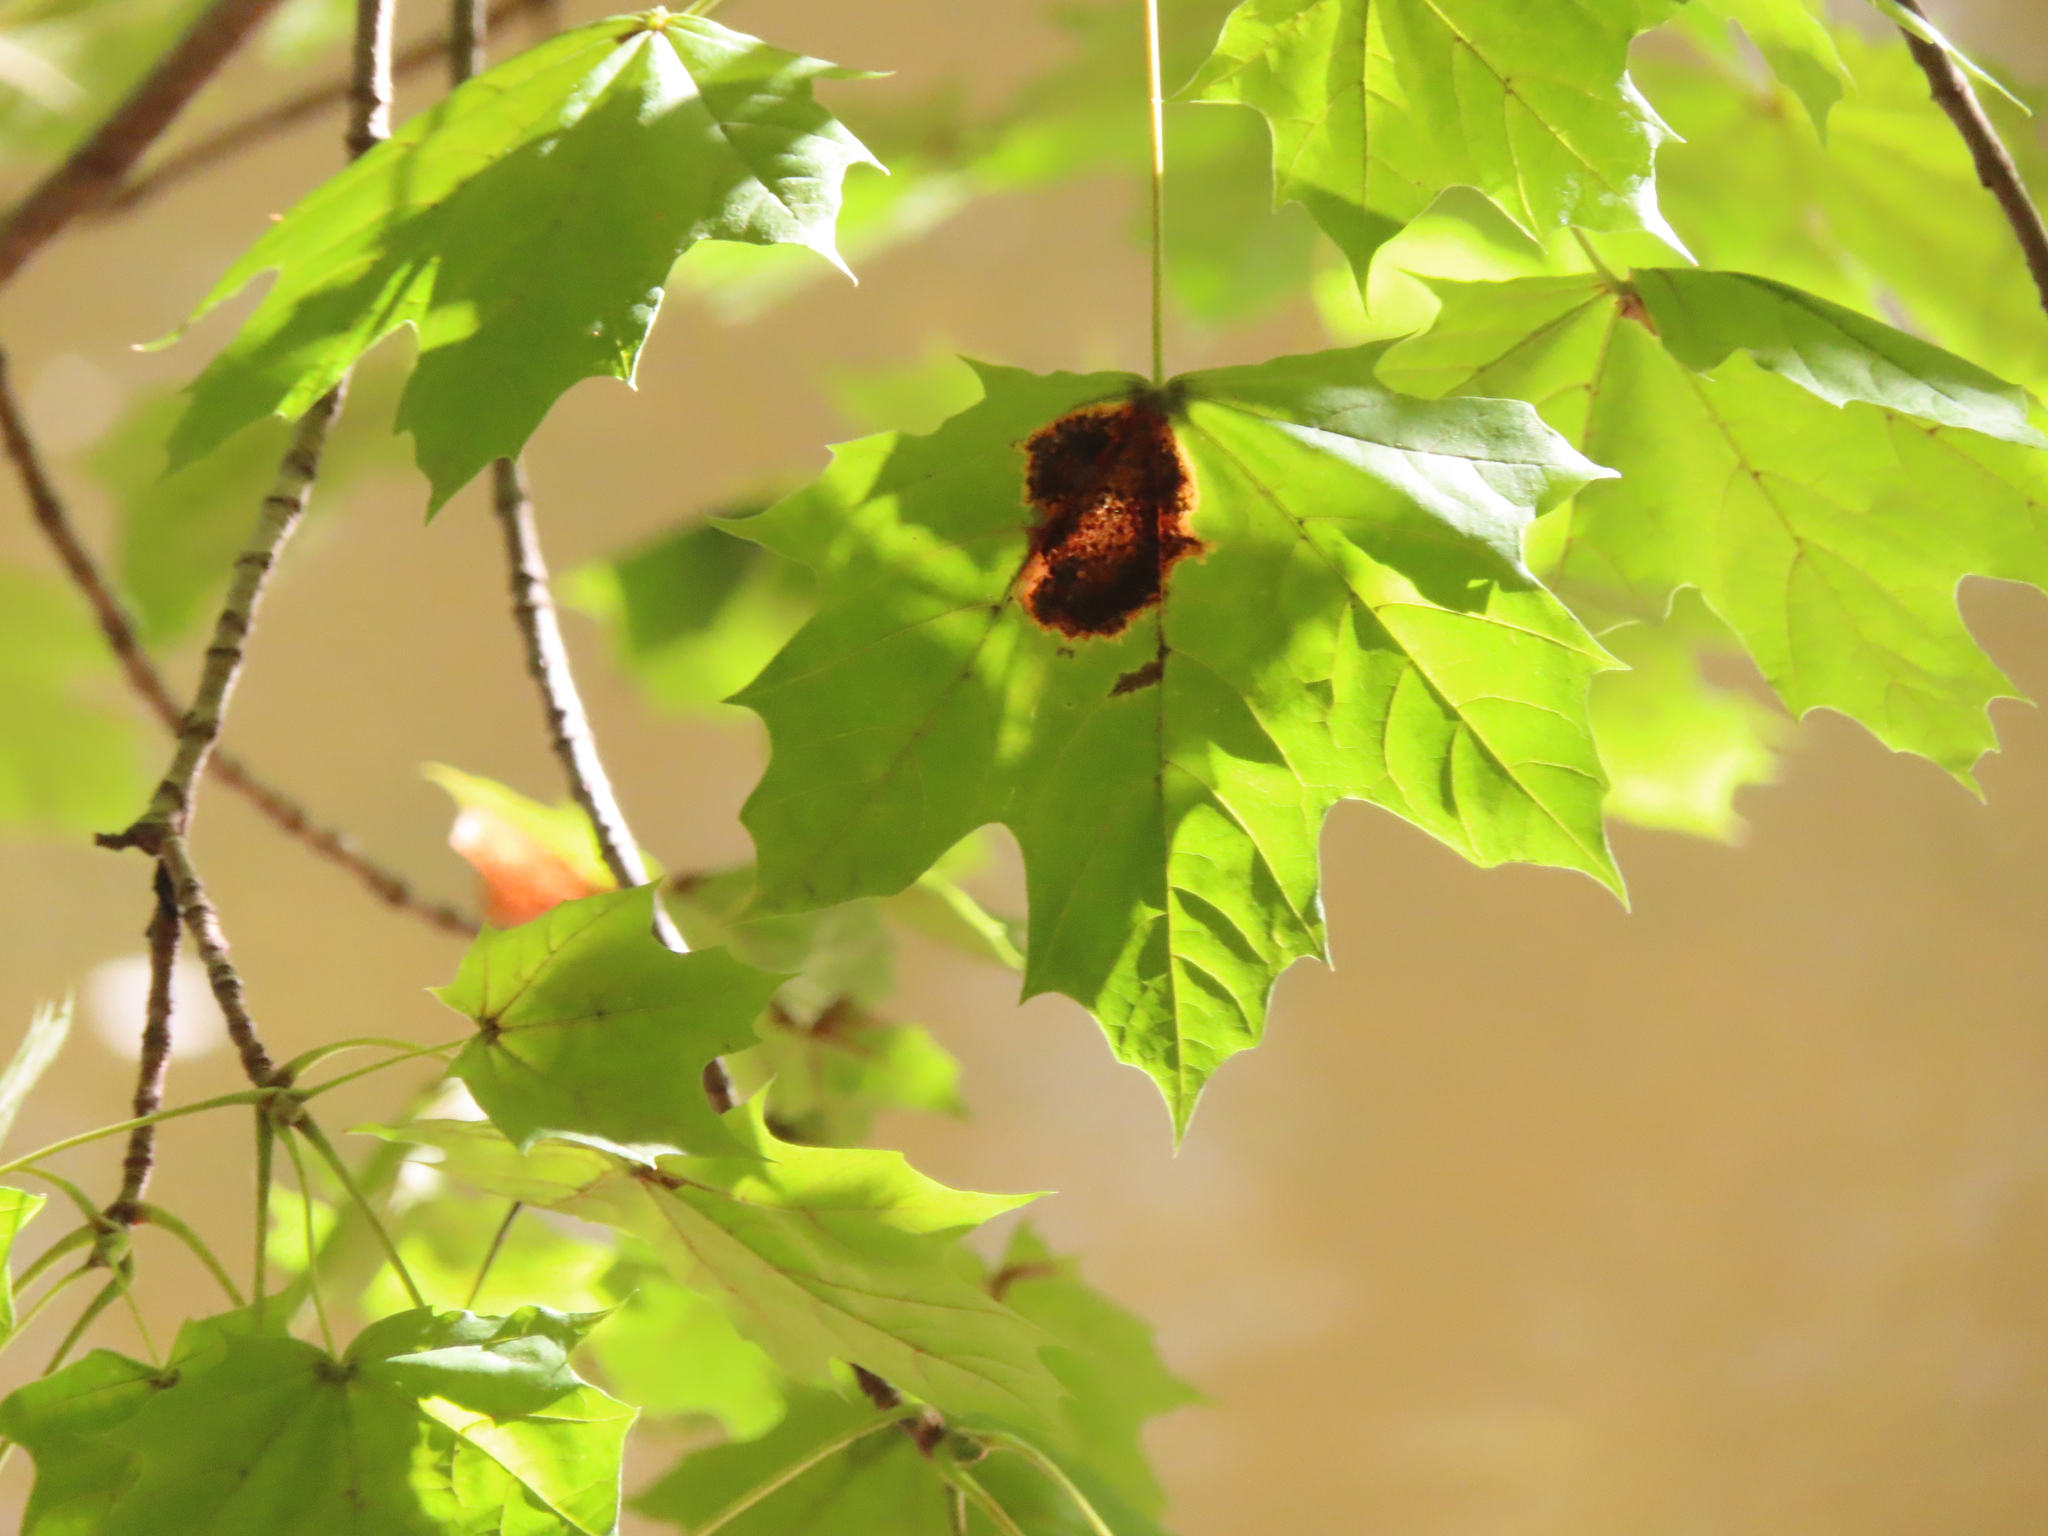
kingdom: Fungi
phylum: Ascomycota
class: Leotiomycetes
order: Rhytismatales
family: Rhytismataceae
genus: Rhytisma
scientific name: Rhytisma acerinum
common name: European tar spot
